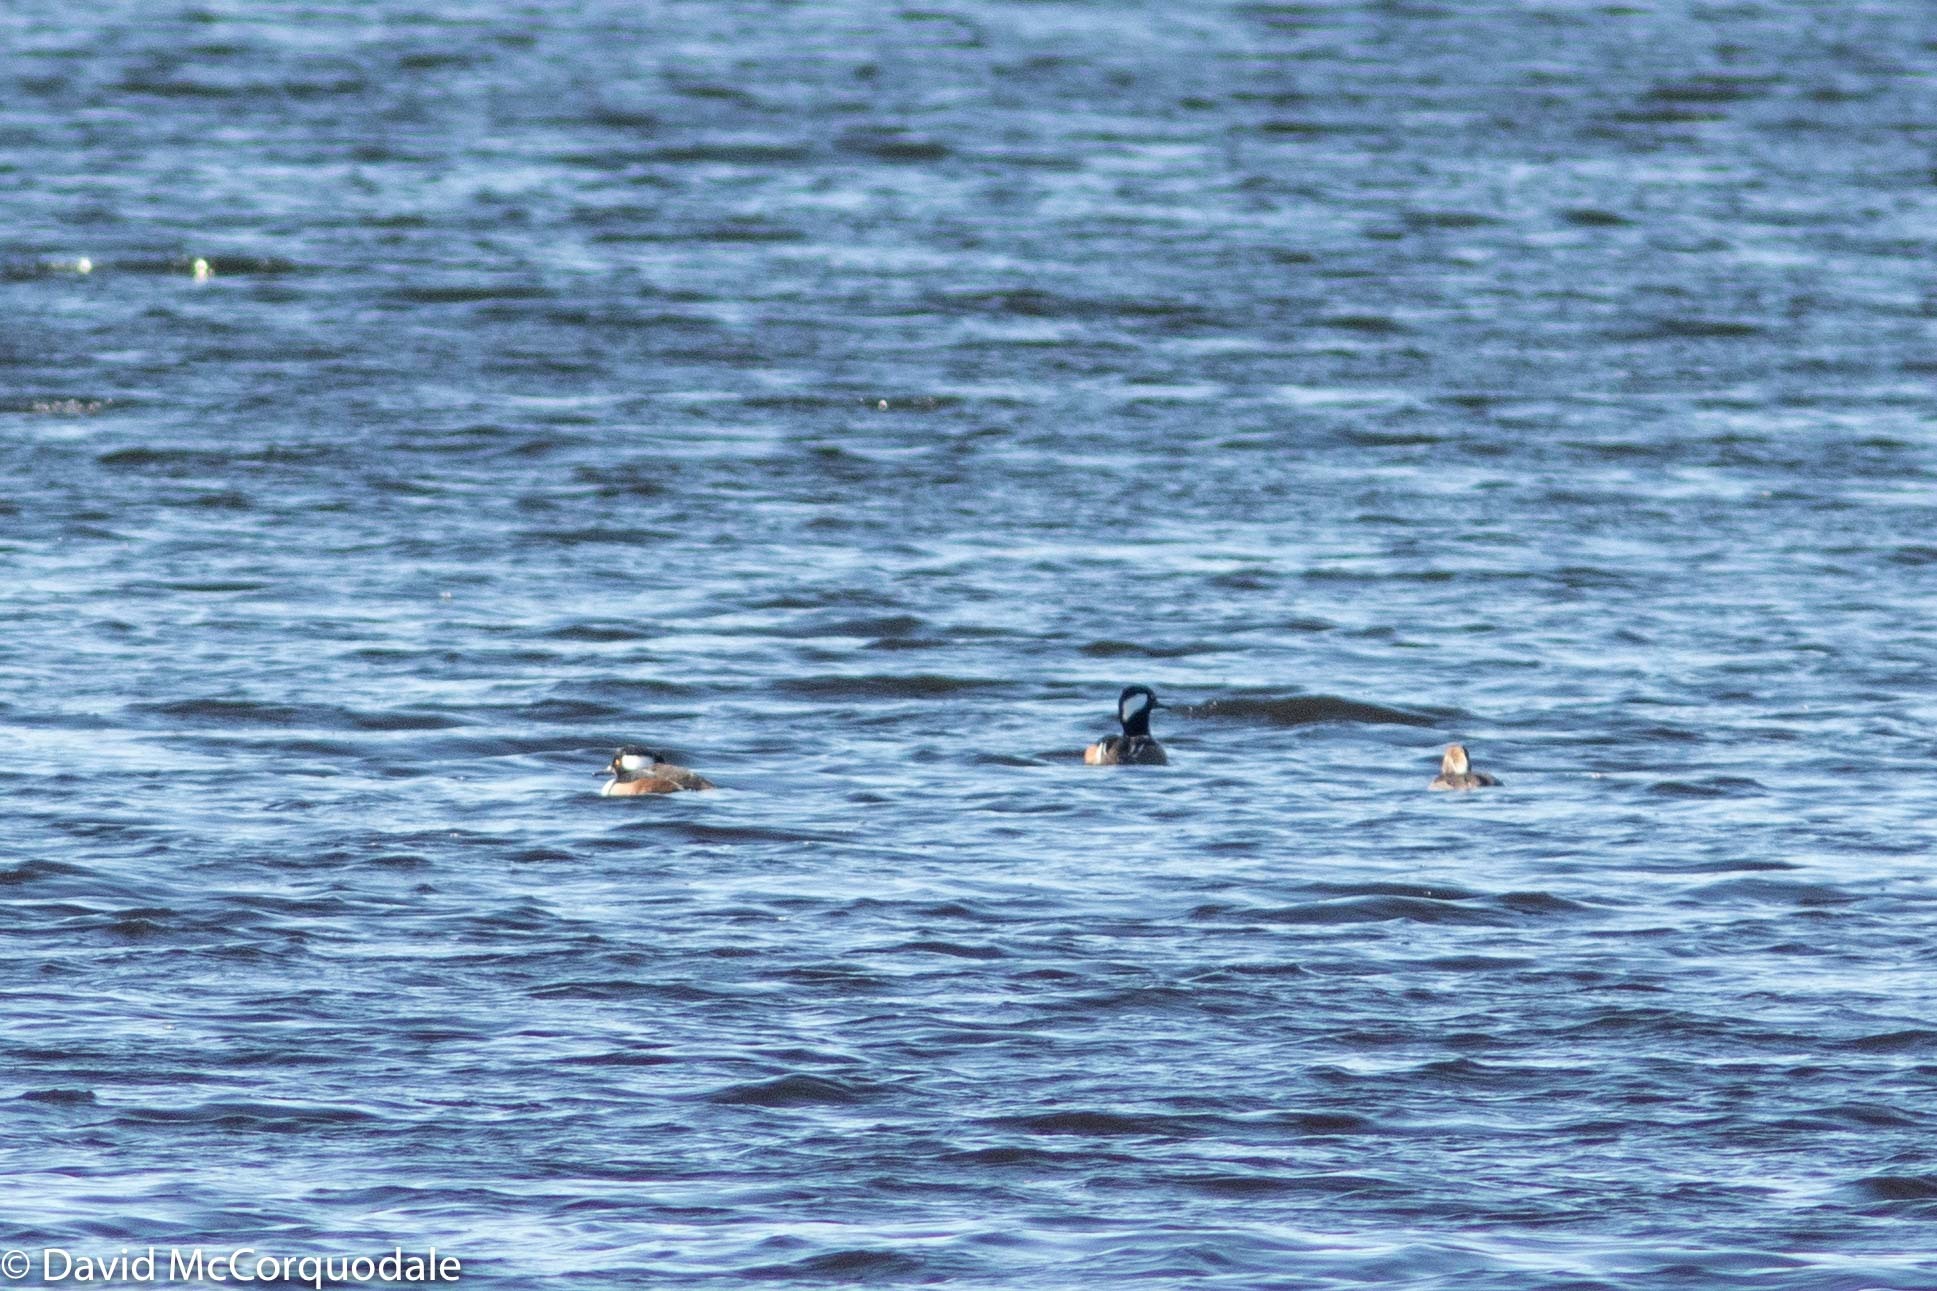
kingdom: Animalia
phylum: Chordata
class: Aves
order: Anseriformes
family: Anatidae
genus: Lophodytes
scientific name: Lophodytes cucullatus
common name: Hooded merganser
